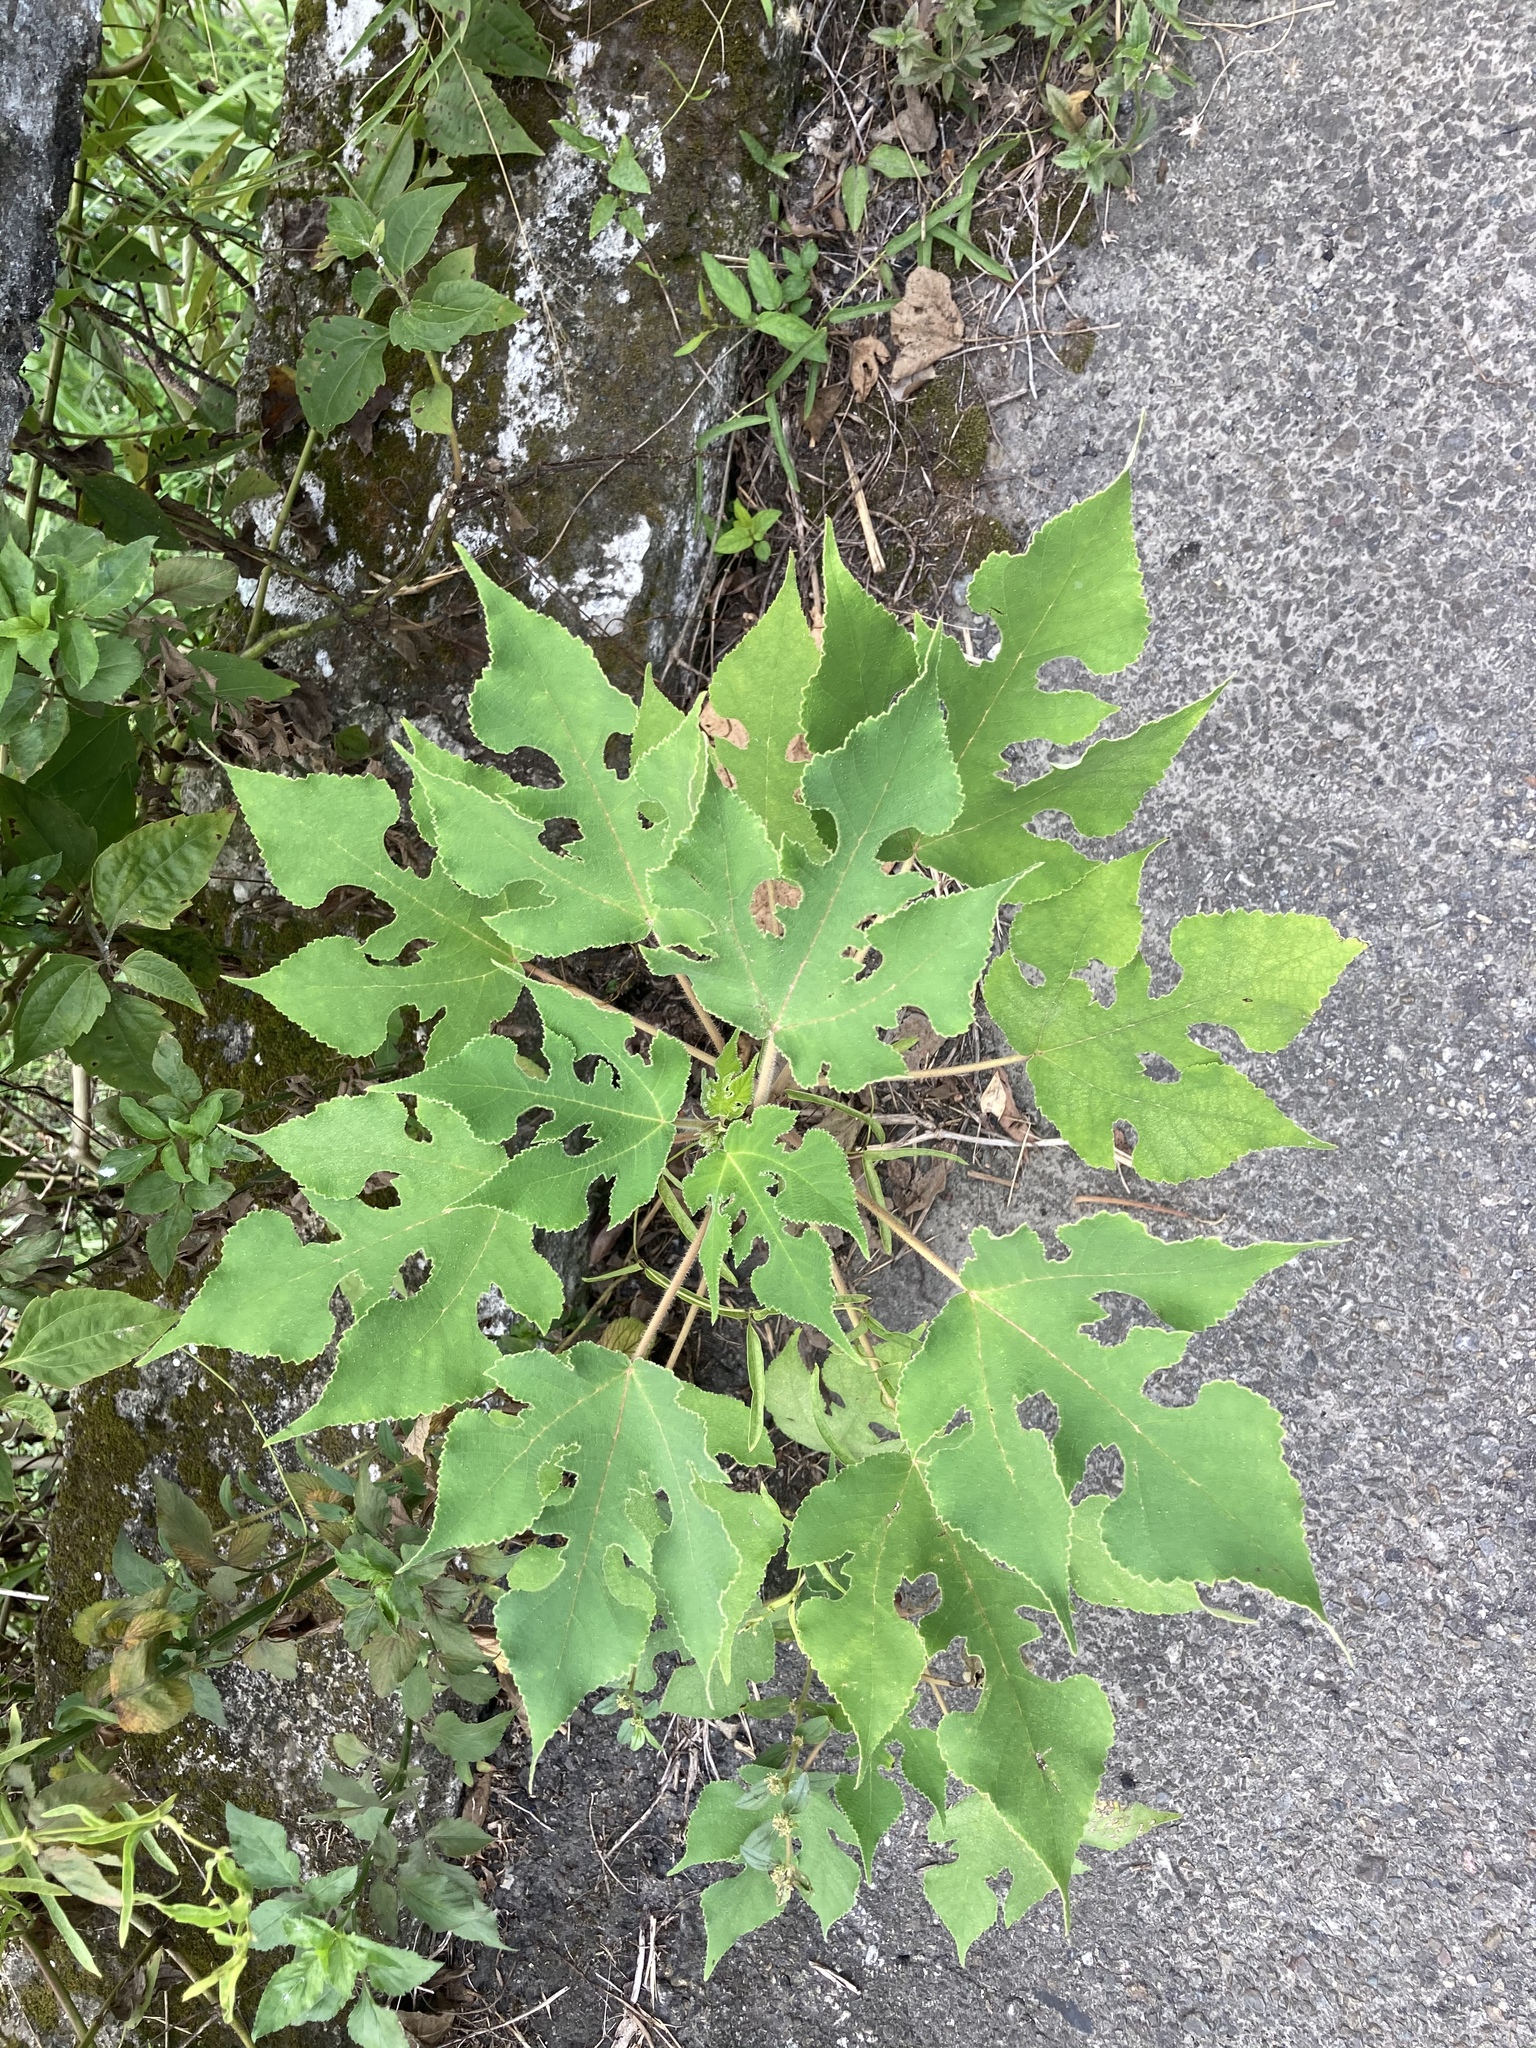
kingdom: Plantae
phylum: Tracheophyta
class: Magnoliopsida
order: Rosales
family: Moraceae
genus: Broussonetia
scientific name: Broussonetia papyrifera
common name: Paper mulberry
